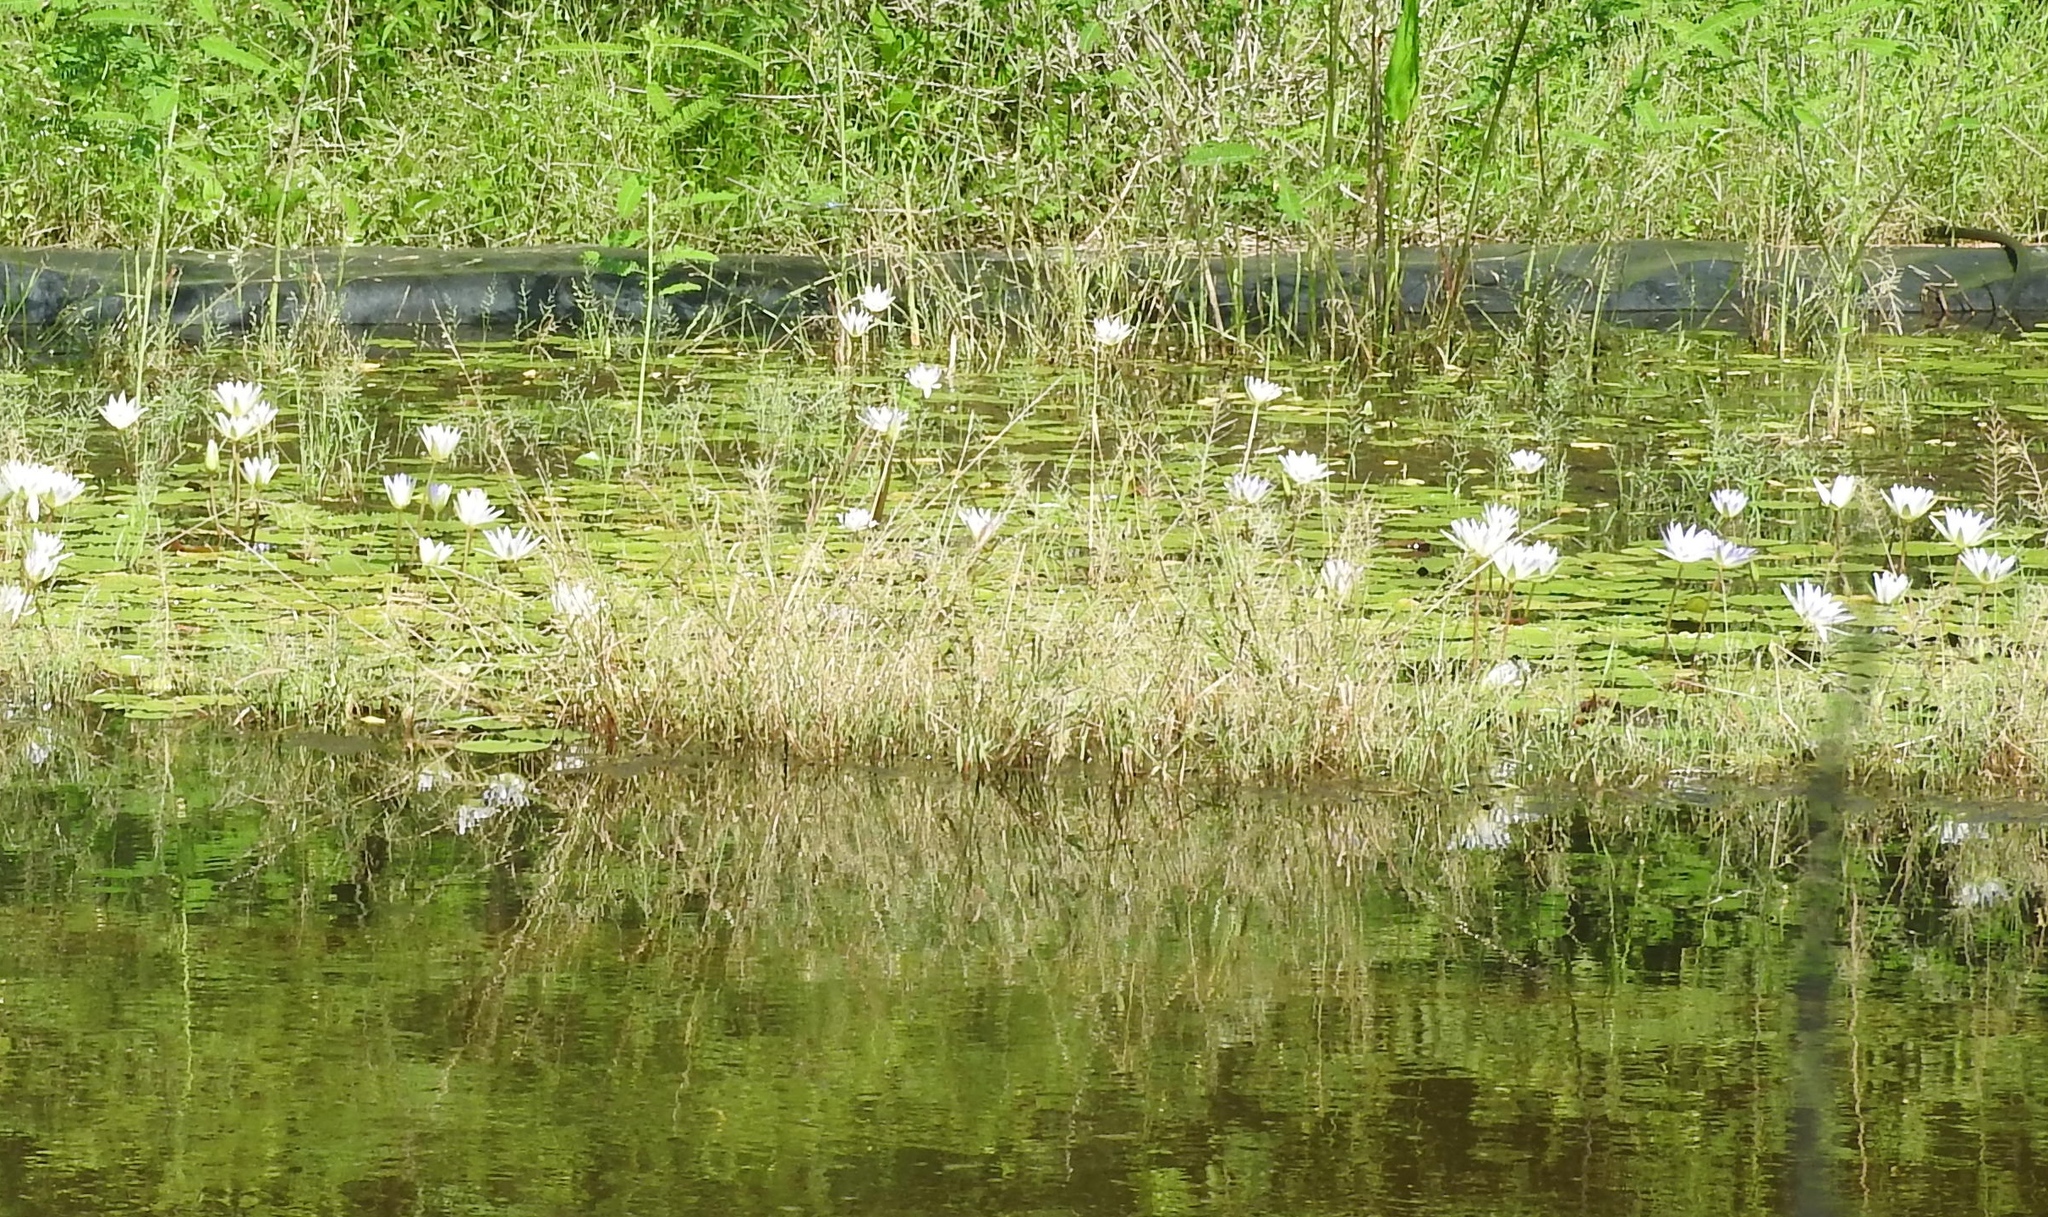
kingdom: Plantae
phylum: Tracheophyta
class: Magnoliopsida
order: Nymphaeales
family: Nymphaeaceae
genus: Nymphaea
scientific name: Nymphaea elegans
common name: Blue water-lily
